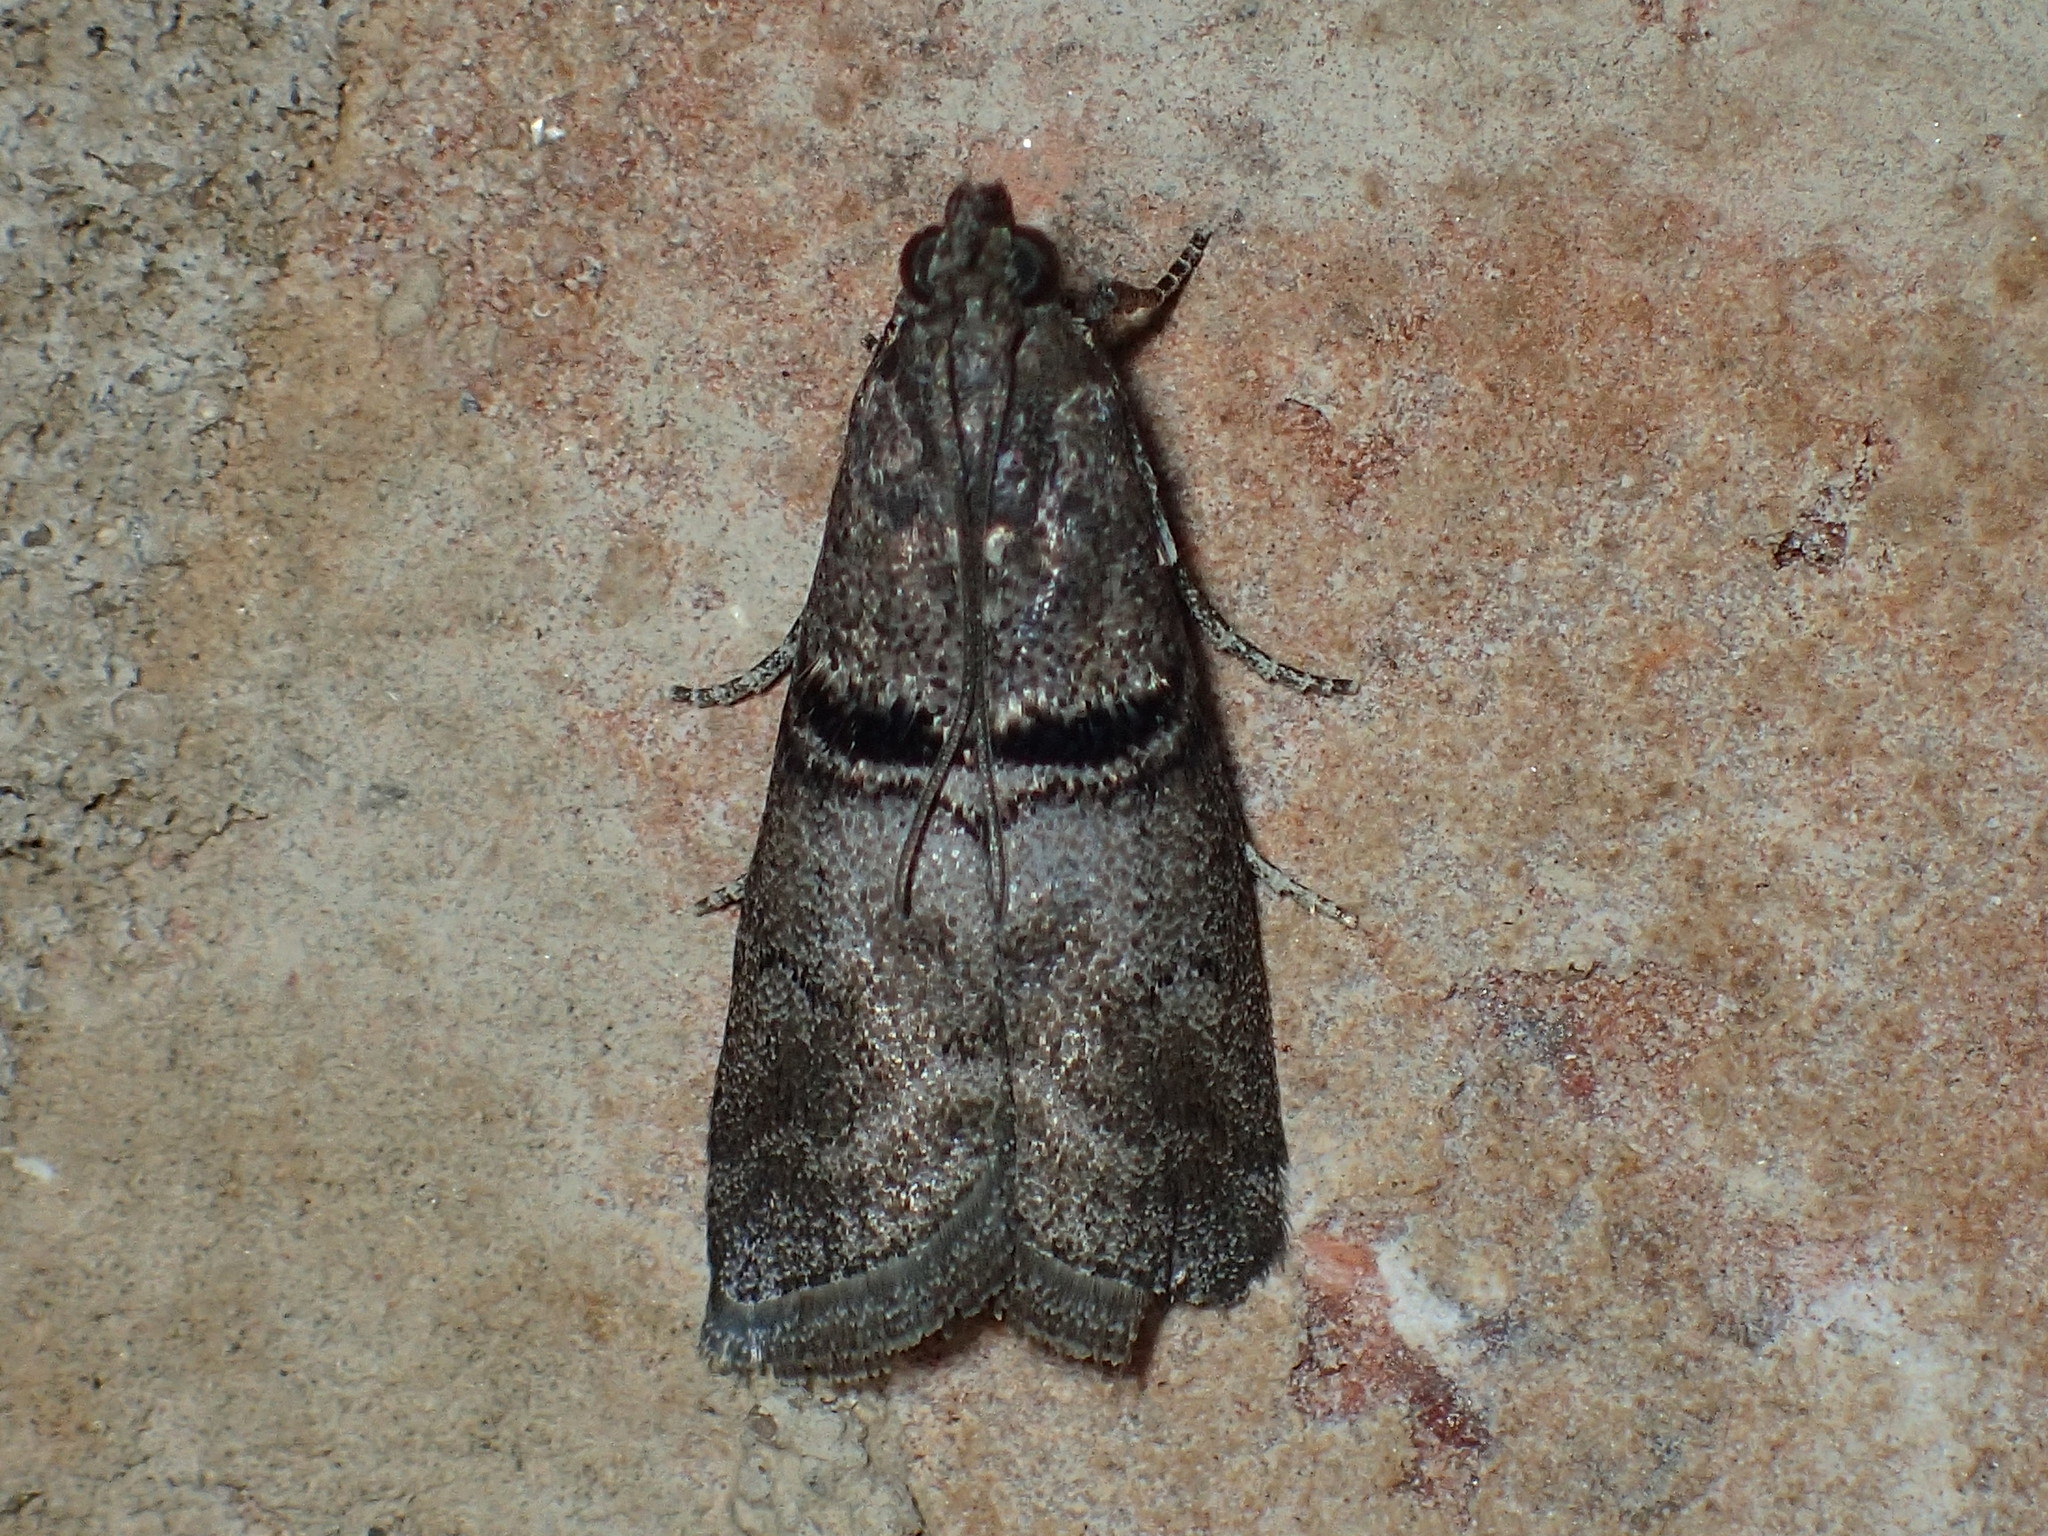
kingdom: Animalia
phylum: Arthropoda
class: Insecta
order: Lepidoptera
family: Pyralidae
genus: Immyrla
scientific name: Immyrla nigrovittella
